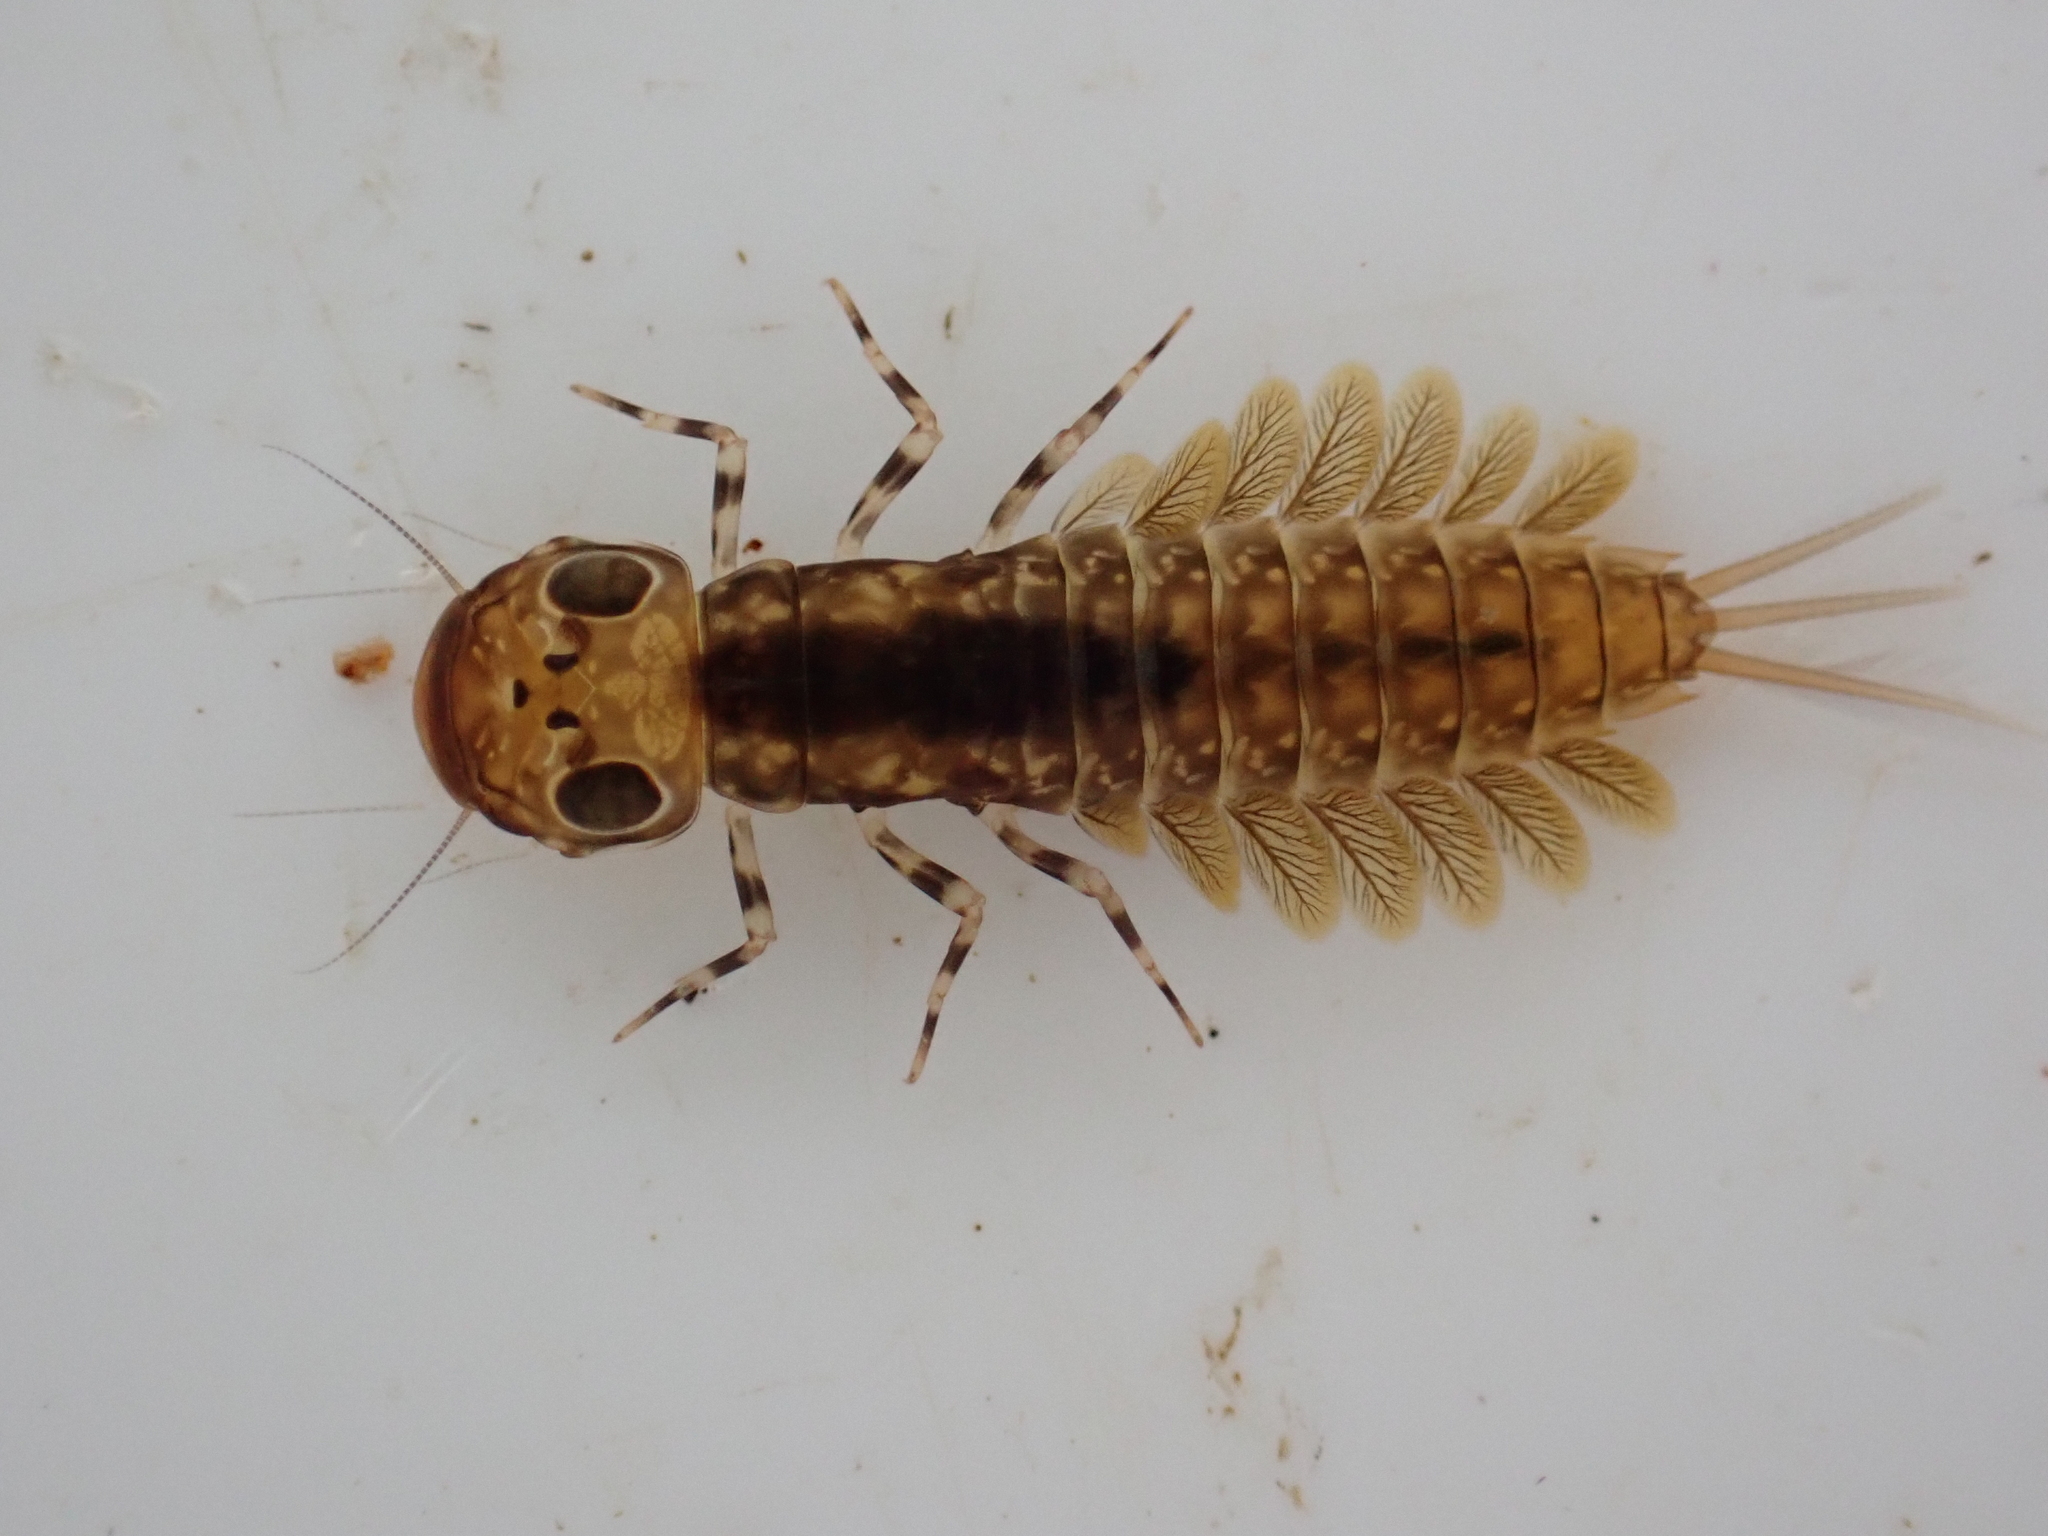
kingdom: Animalia
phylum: Arthropoda
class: Insecta
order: Ephemeroptera
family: Ameletopsidae
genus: Ameletopsis
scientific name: Ameletopsis perscitus
